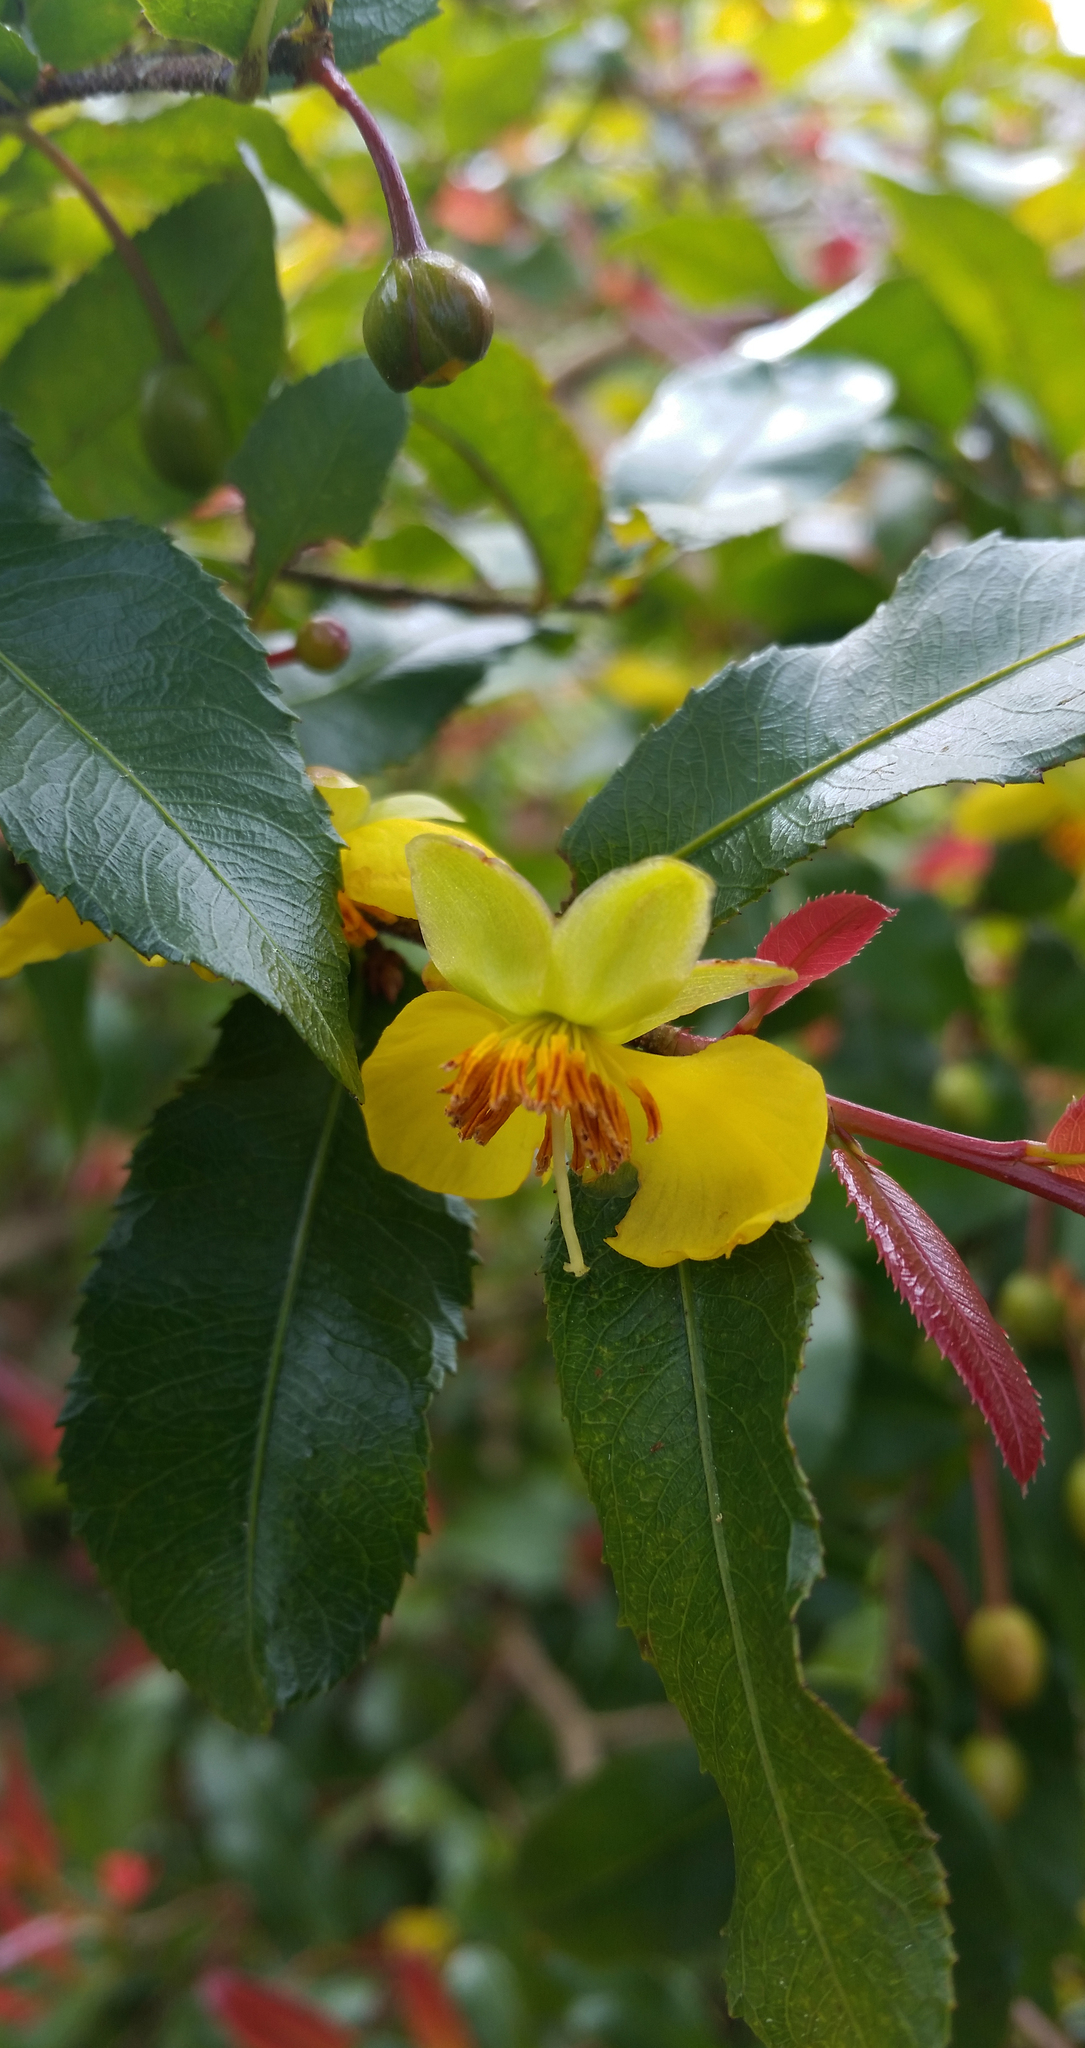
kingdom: Plantae
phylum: Tracheophyta
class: Magnoliopsida
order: Malpighiales
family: Ochnaceae
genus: Ochna
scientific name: Ochna serrulata
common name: Mickey mouse plant
